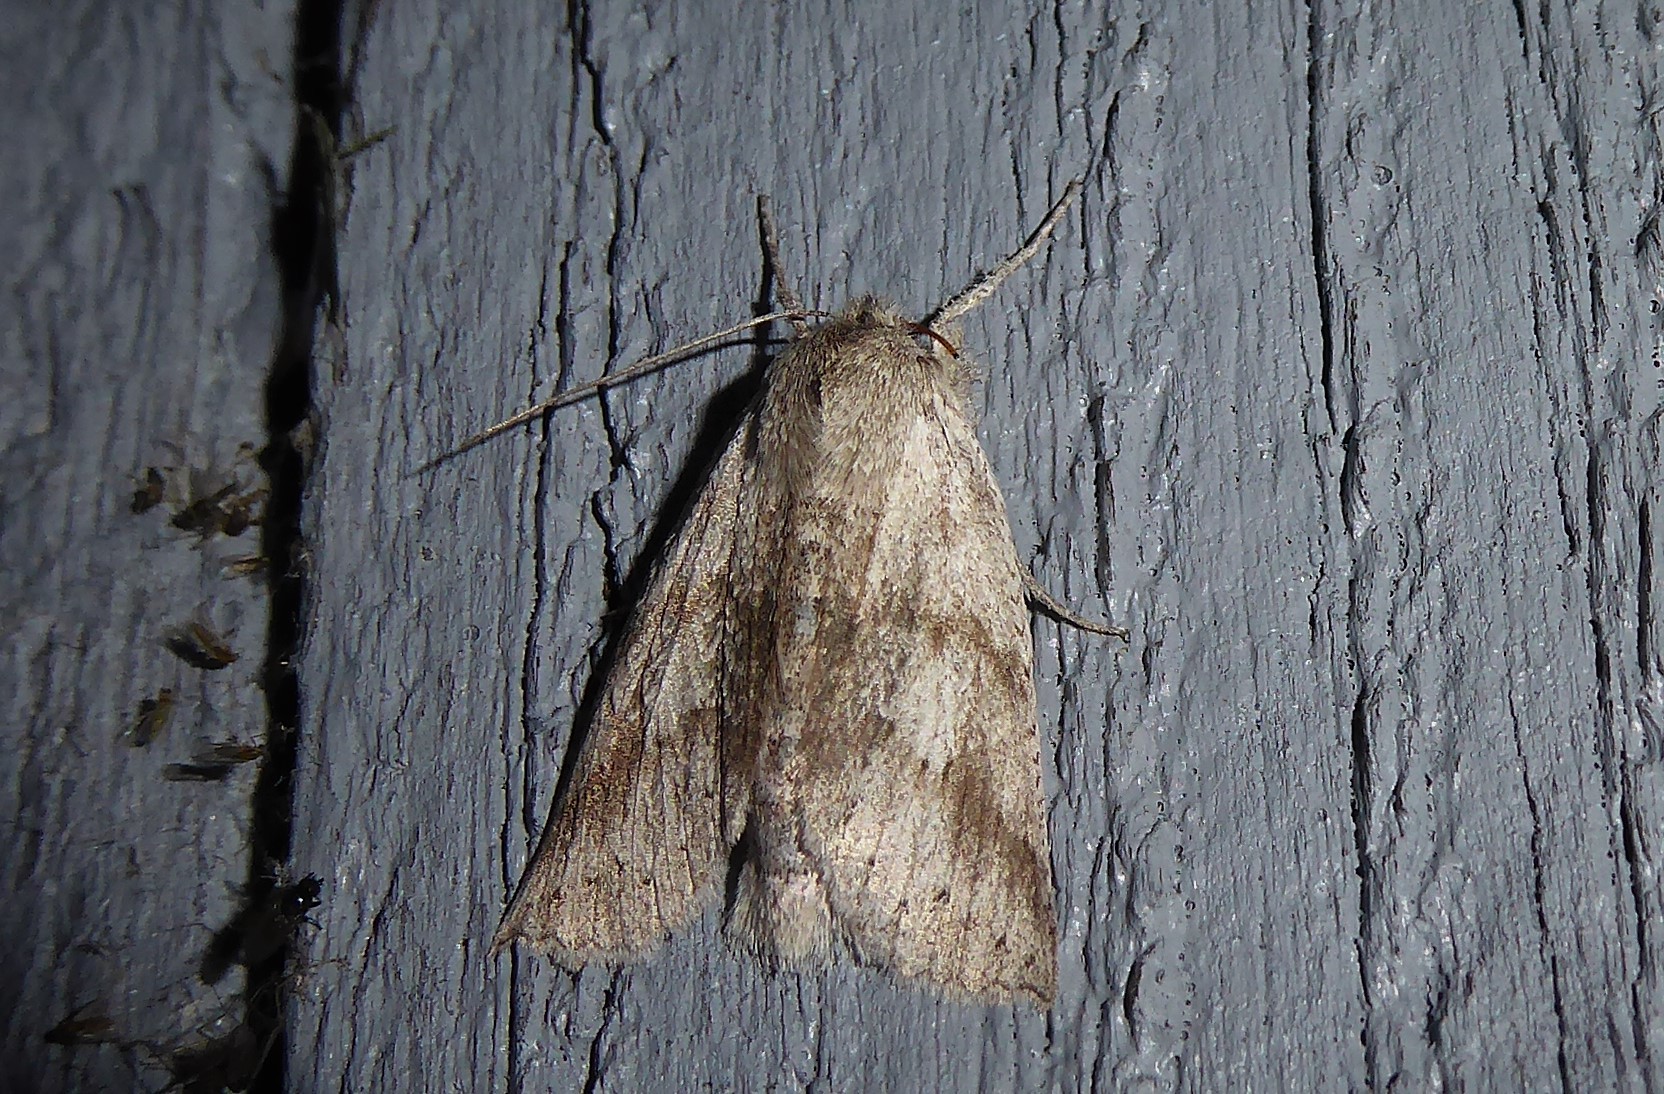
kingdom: Animalia
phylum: Arthropoda
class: Insecta
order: Lepidoptera
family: Geometridae
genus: Declana
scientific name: Declana leptomera
